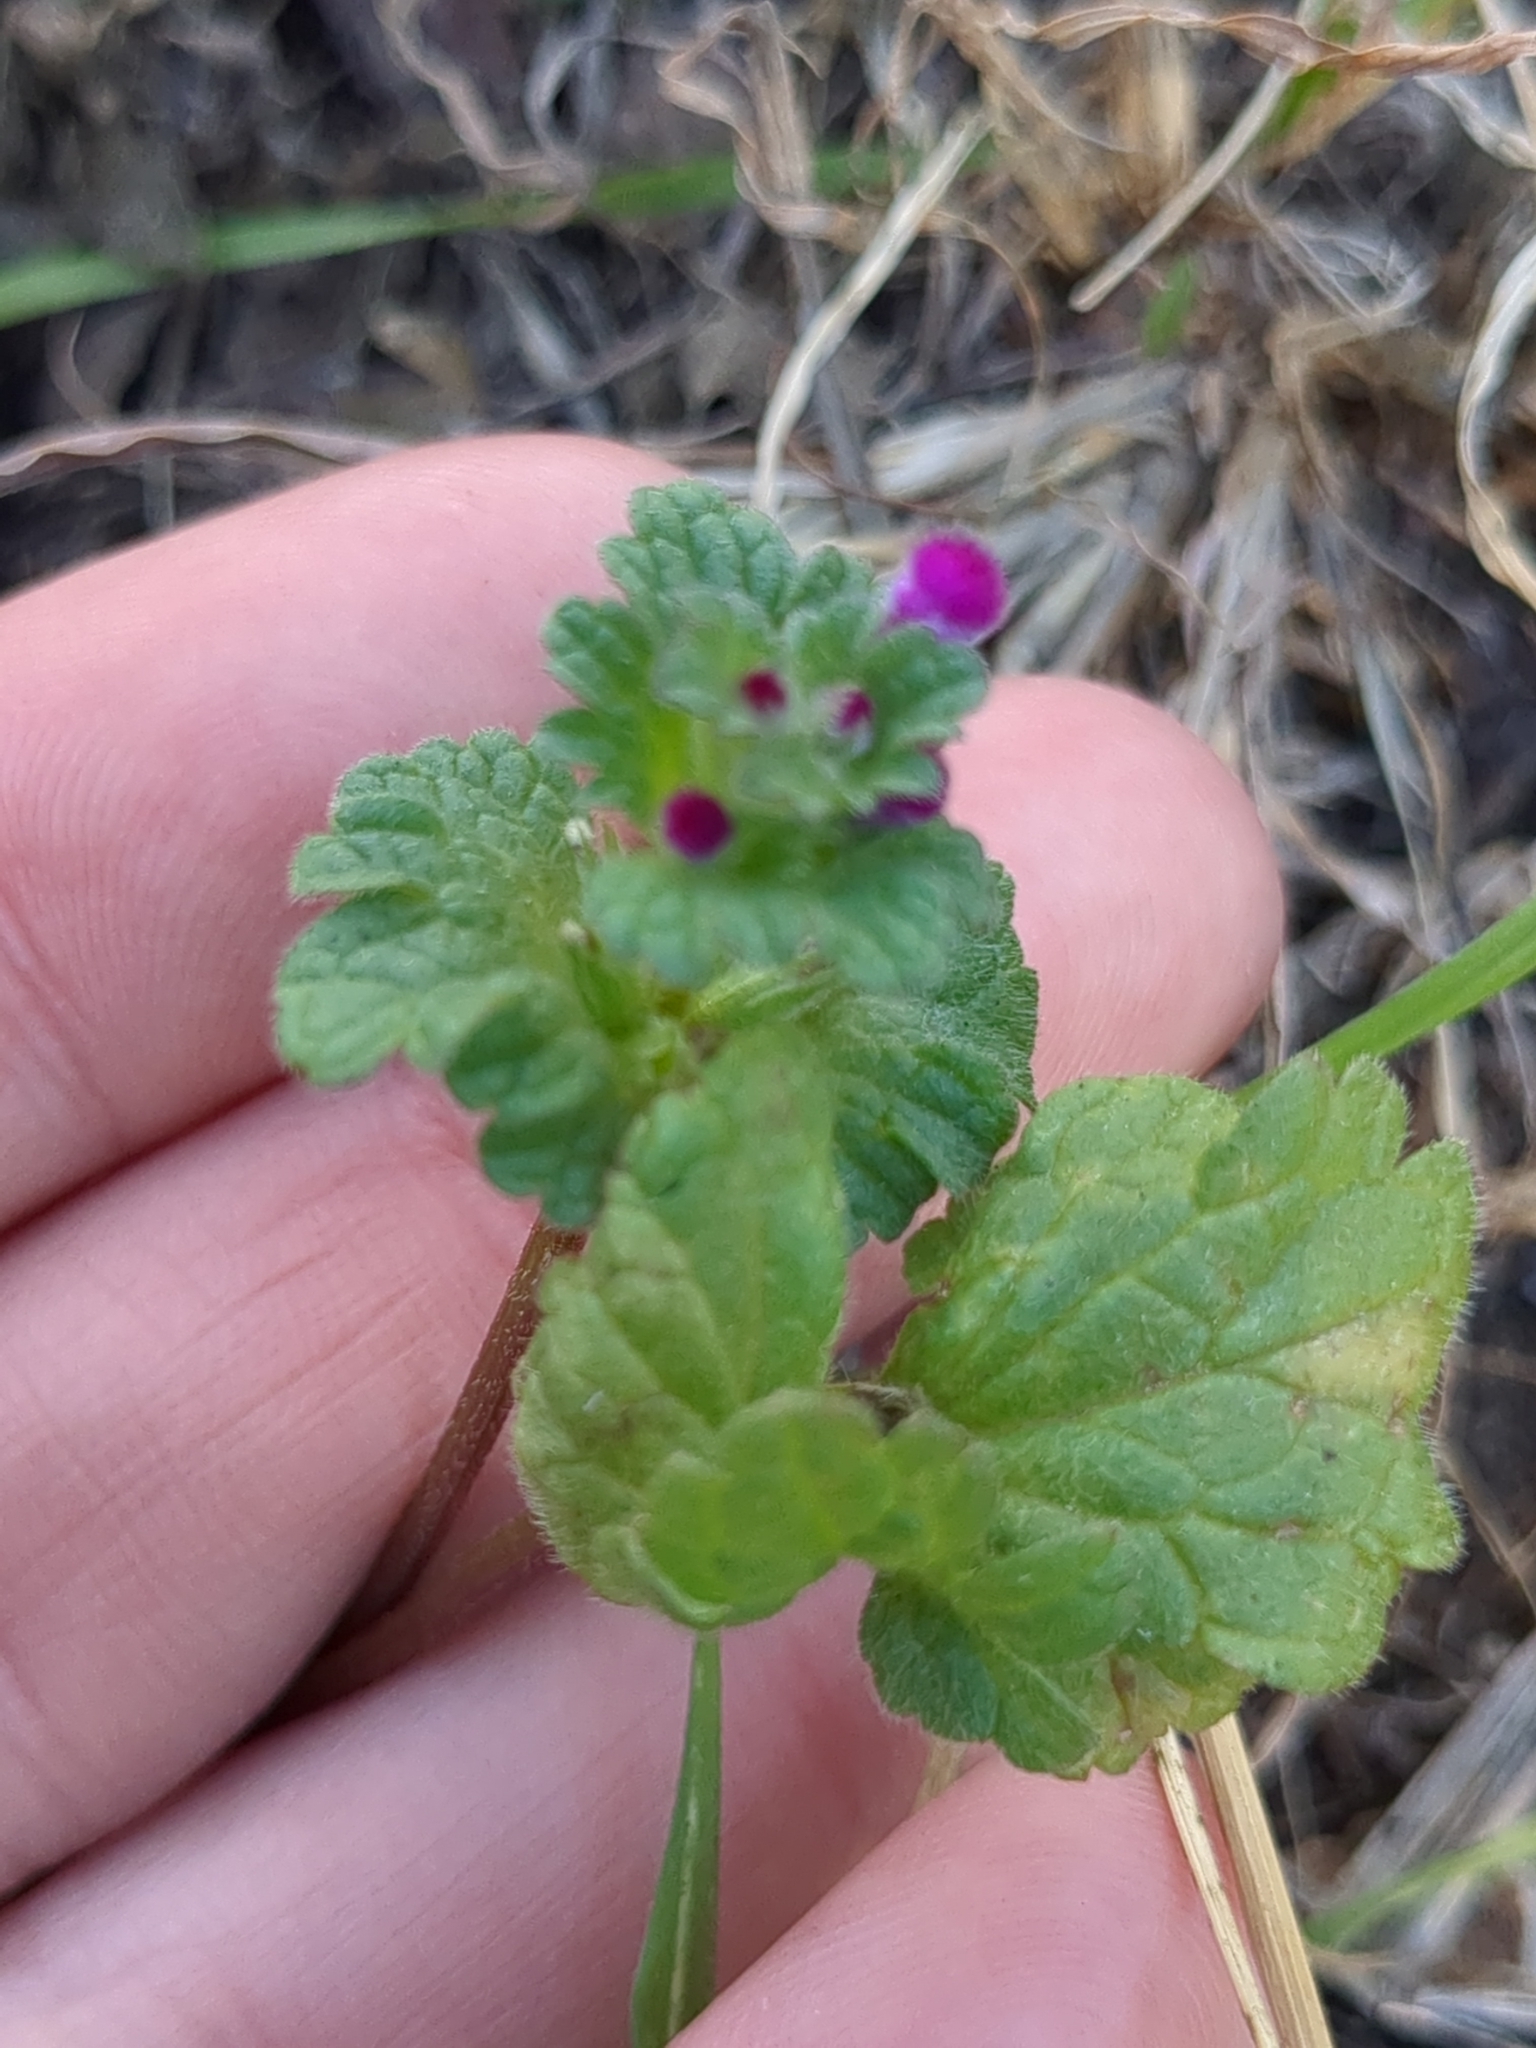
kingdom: Plantae
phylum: Tracheophyta
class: Magnoliopsida
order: Lamiales
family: Lamiaceae
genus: Lamium
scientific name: Lamium amplexicaule
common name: Henbit dead-nettle
